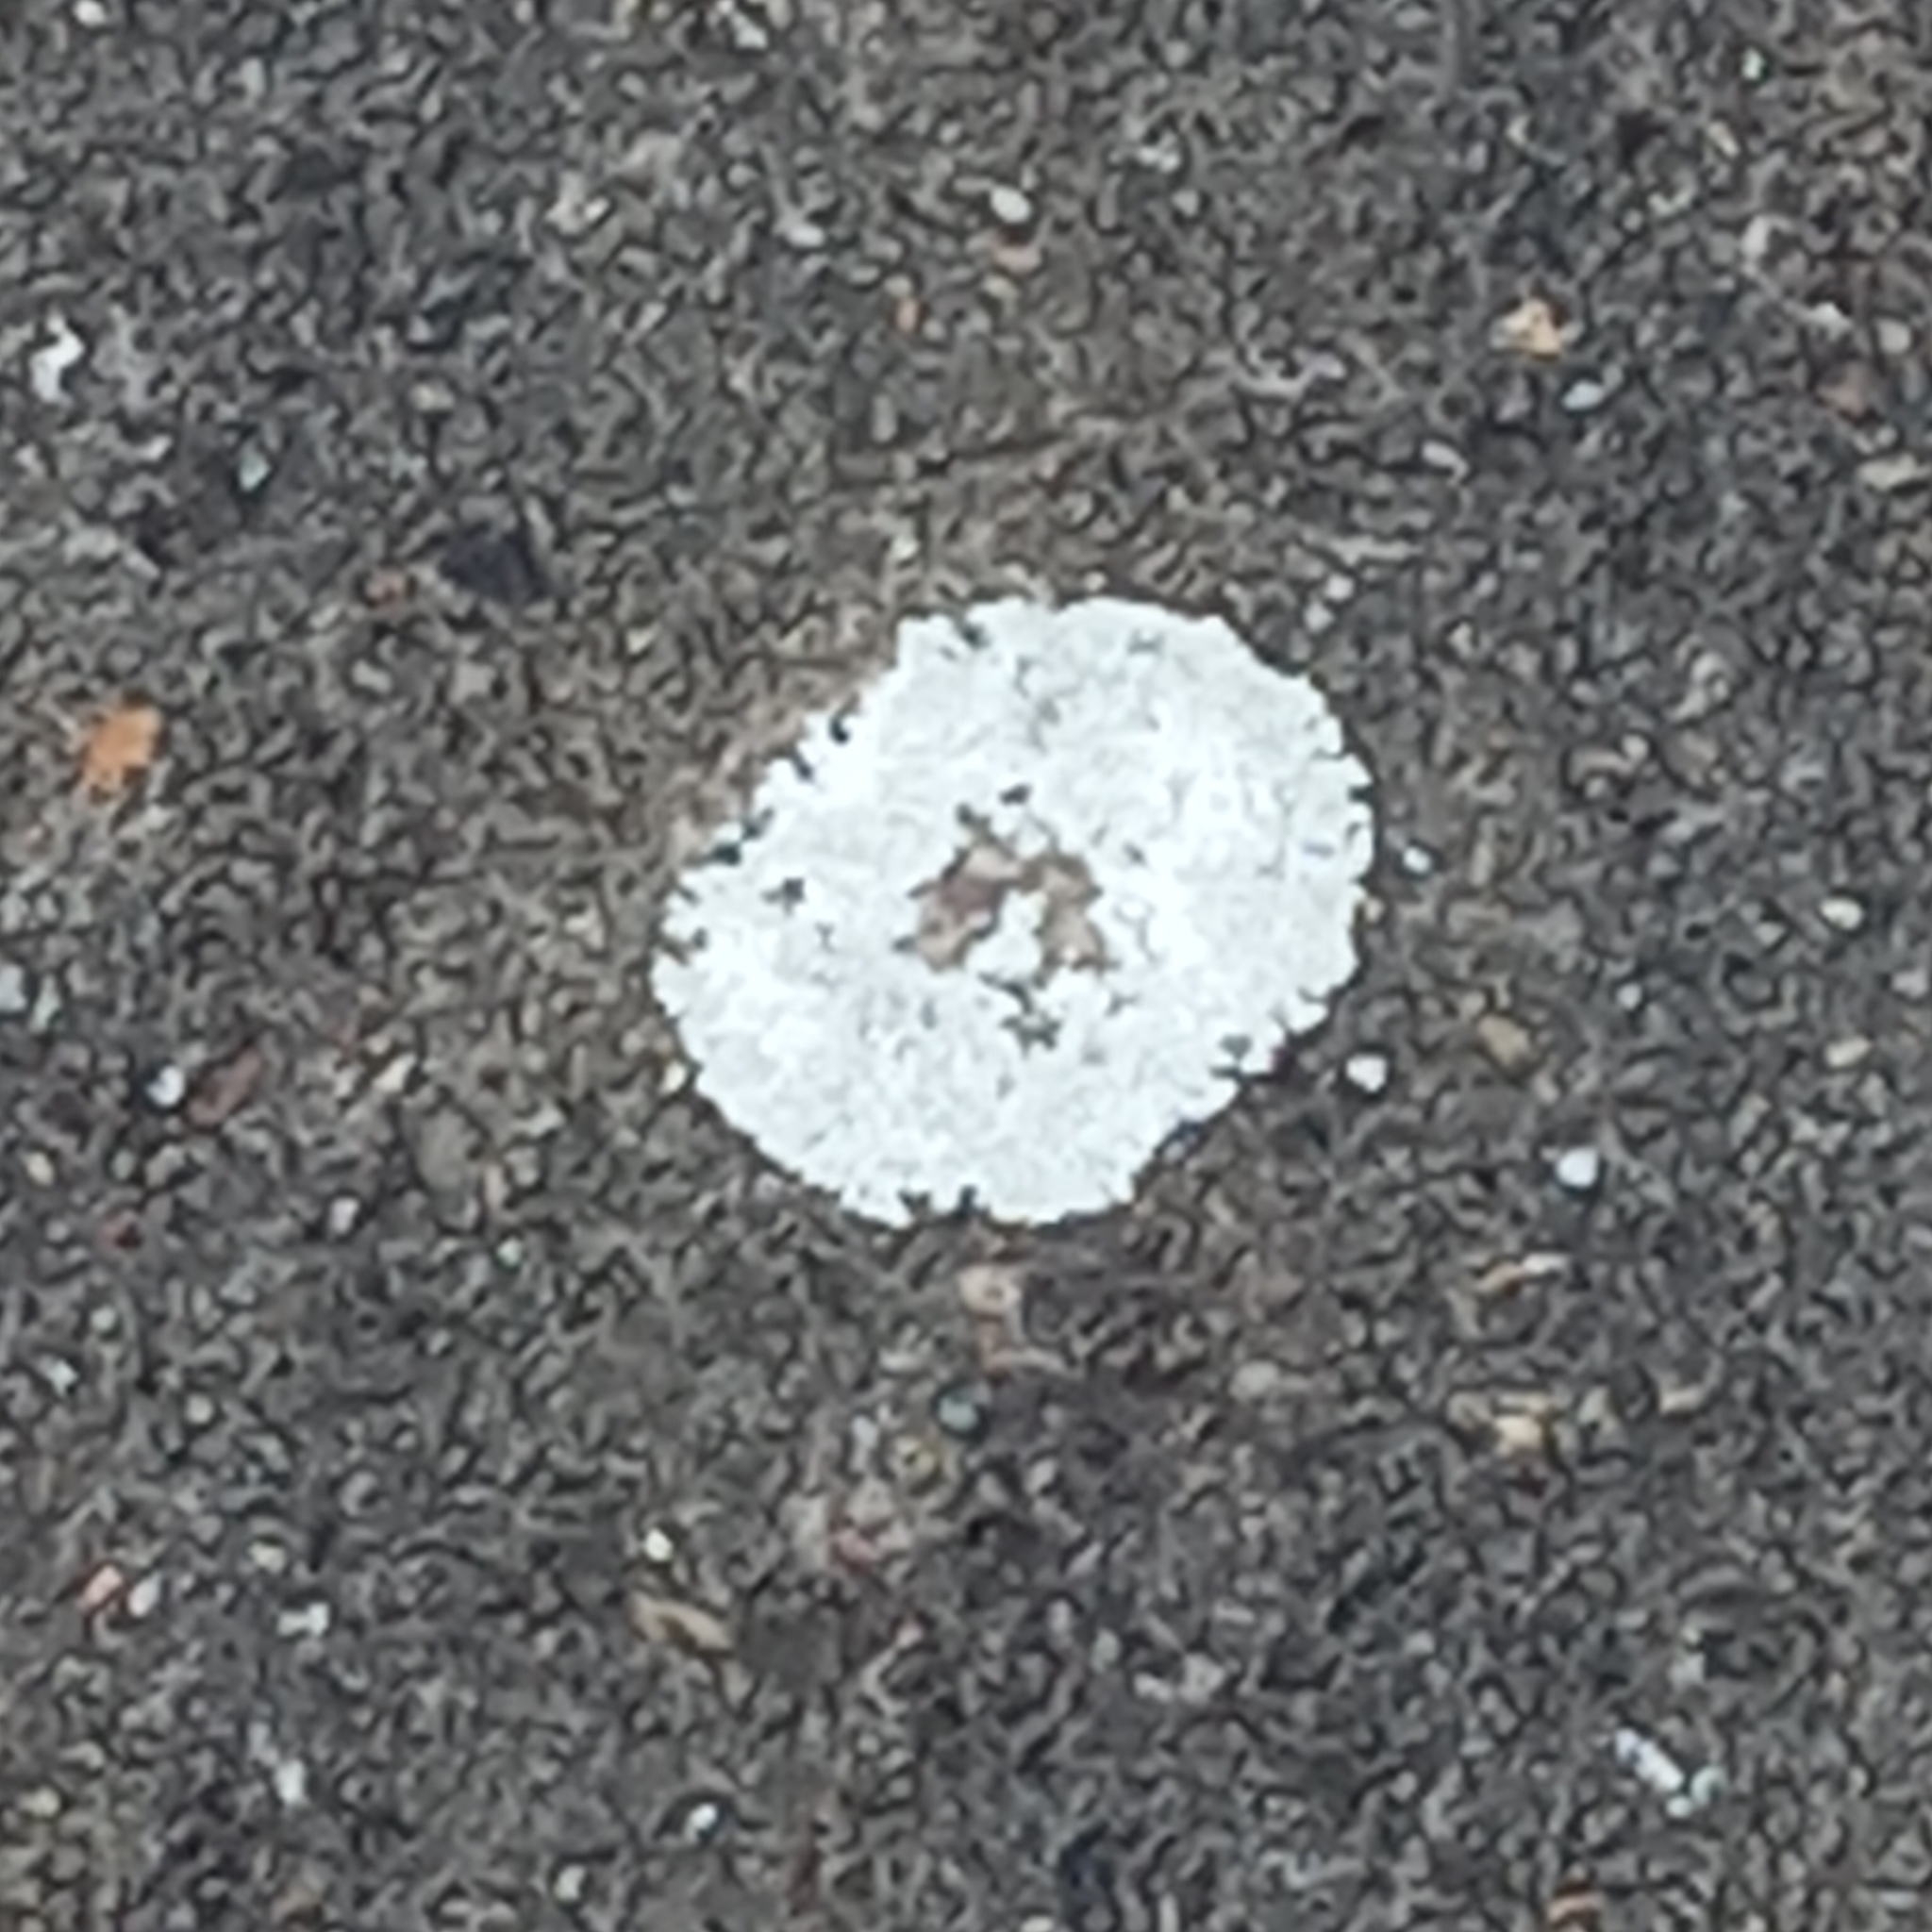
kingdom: Fungi
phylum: Ascomycota
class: Lecanoromycetes
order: Lecanorales
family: Lecanoraceae
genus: Protoparmeliopsis
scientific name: Protoparmeliopsis muralis
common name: Stonewall rim lichen
